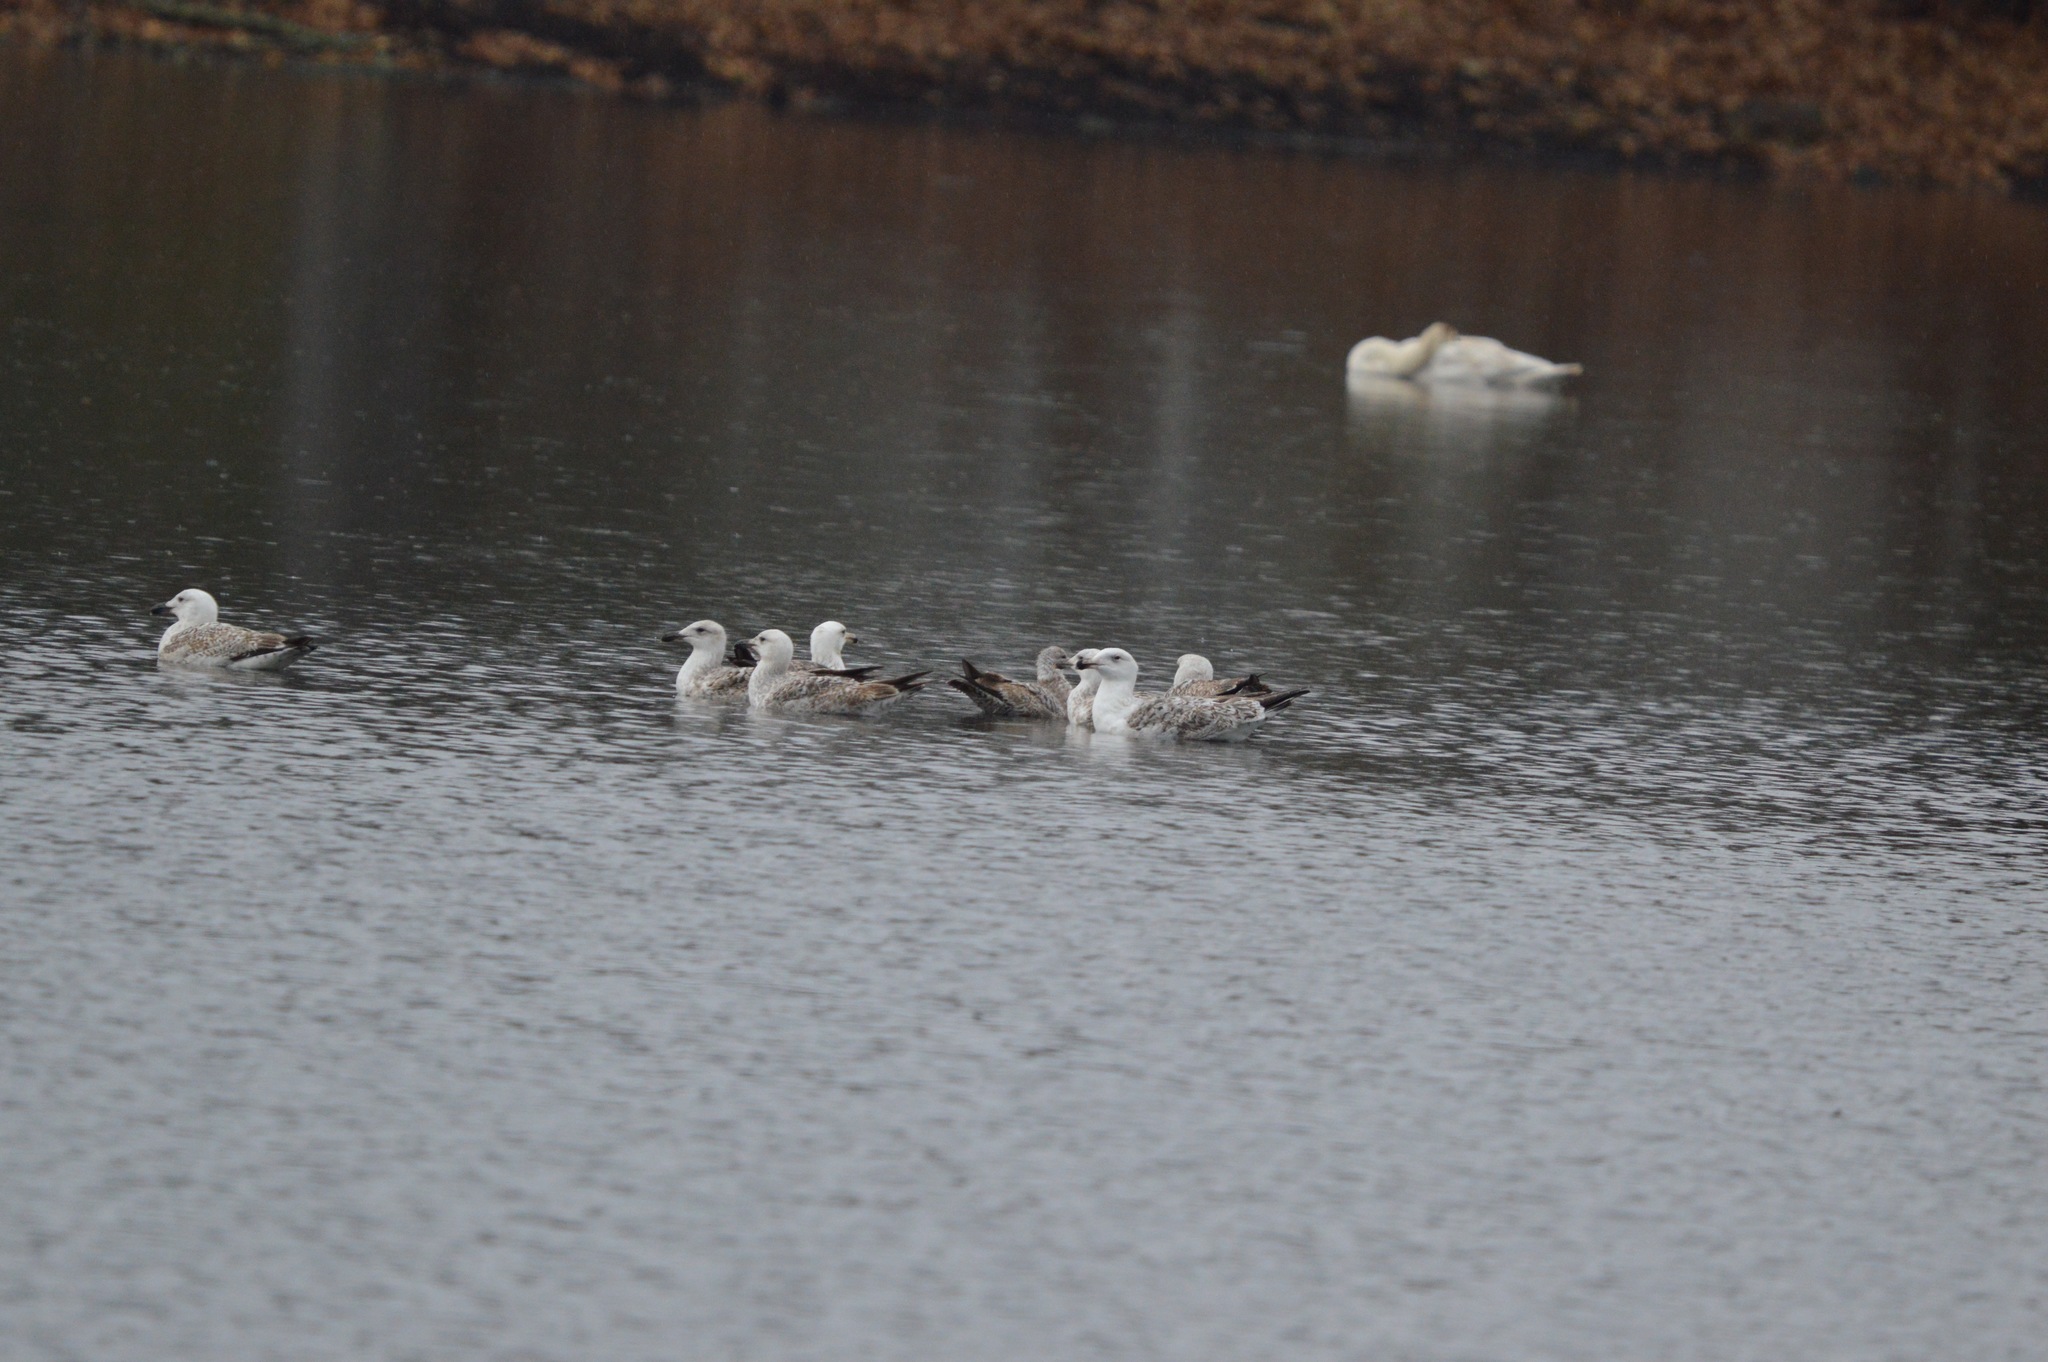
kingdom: Animalia
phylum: Chordata
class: Aves
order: Charadriiformes
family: Laridae
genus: Larus
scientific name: Larus marinus
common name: Great black-backed gull
